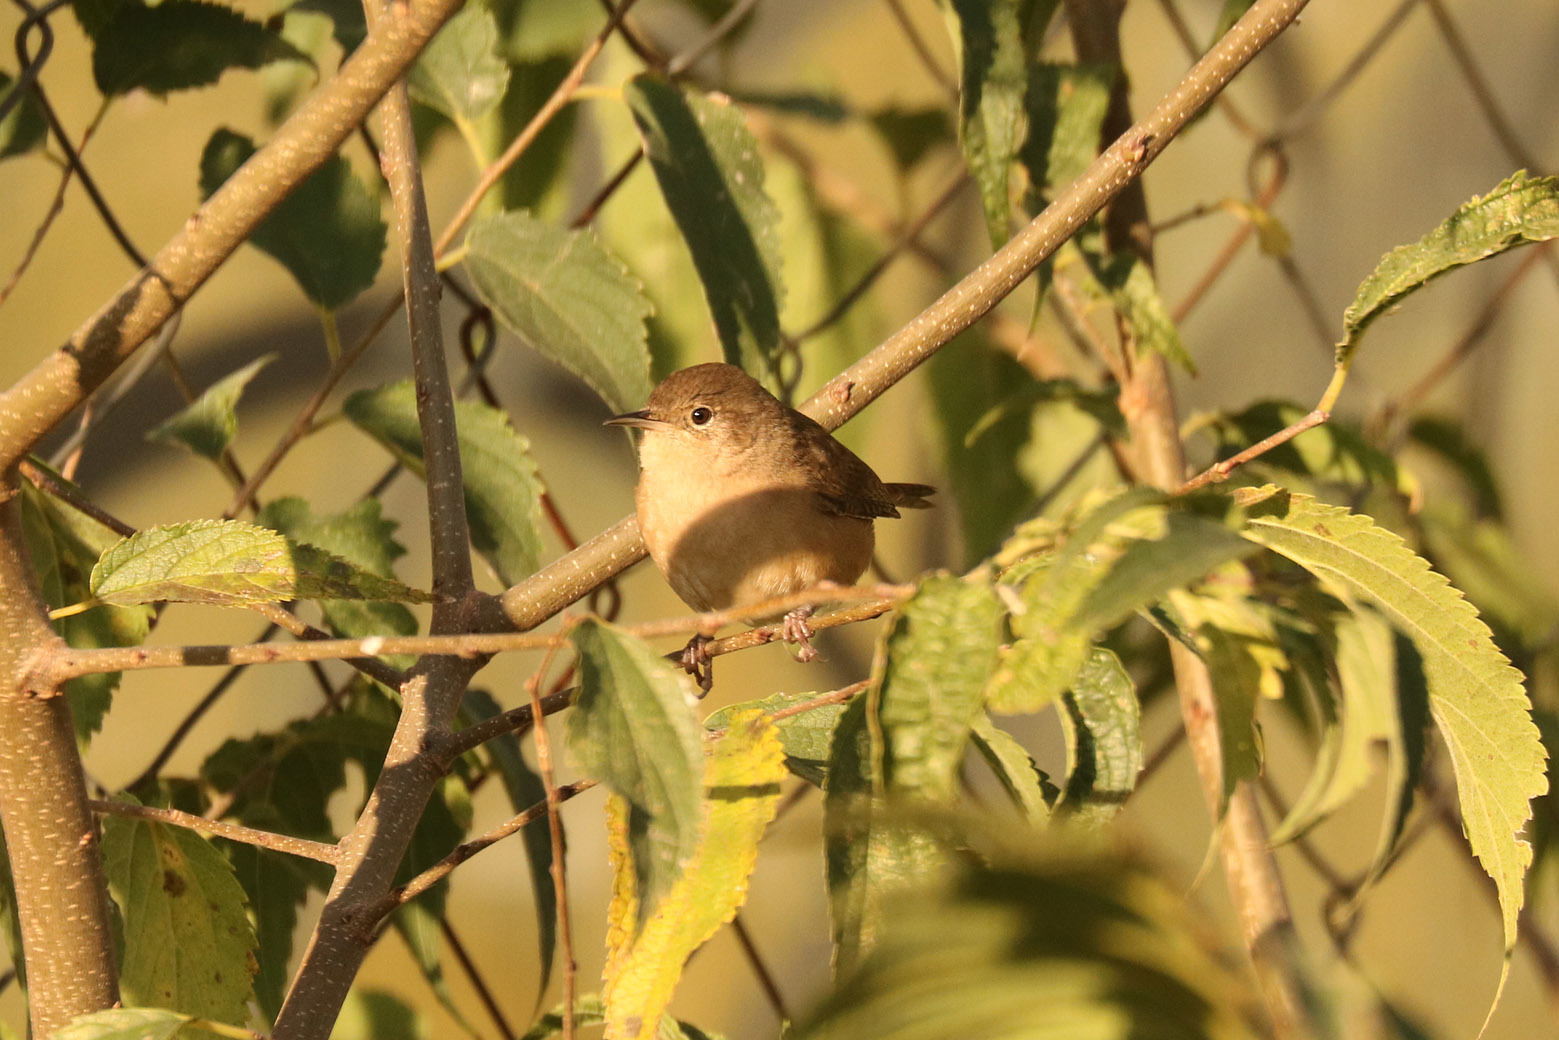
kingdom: Animalia
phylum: Chordata
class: Aves
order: Passeriformes
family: Troglodytidae
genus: Troglodytes
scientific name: Troglodytes aedon
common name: House wren
